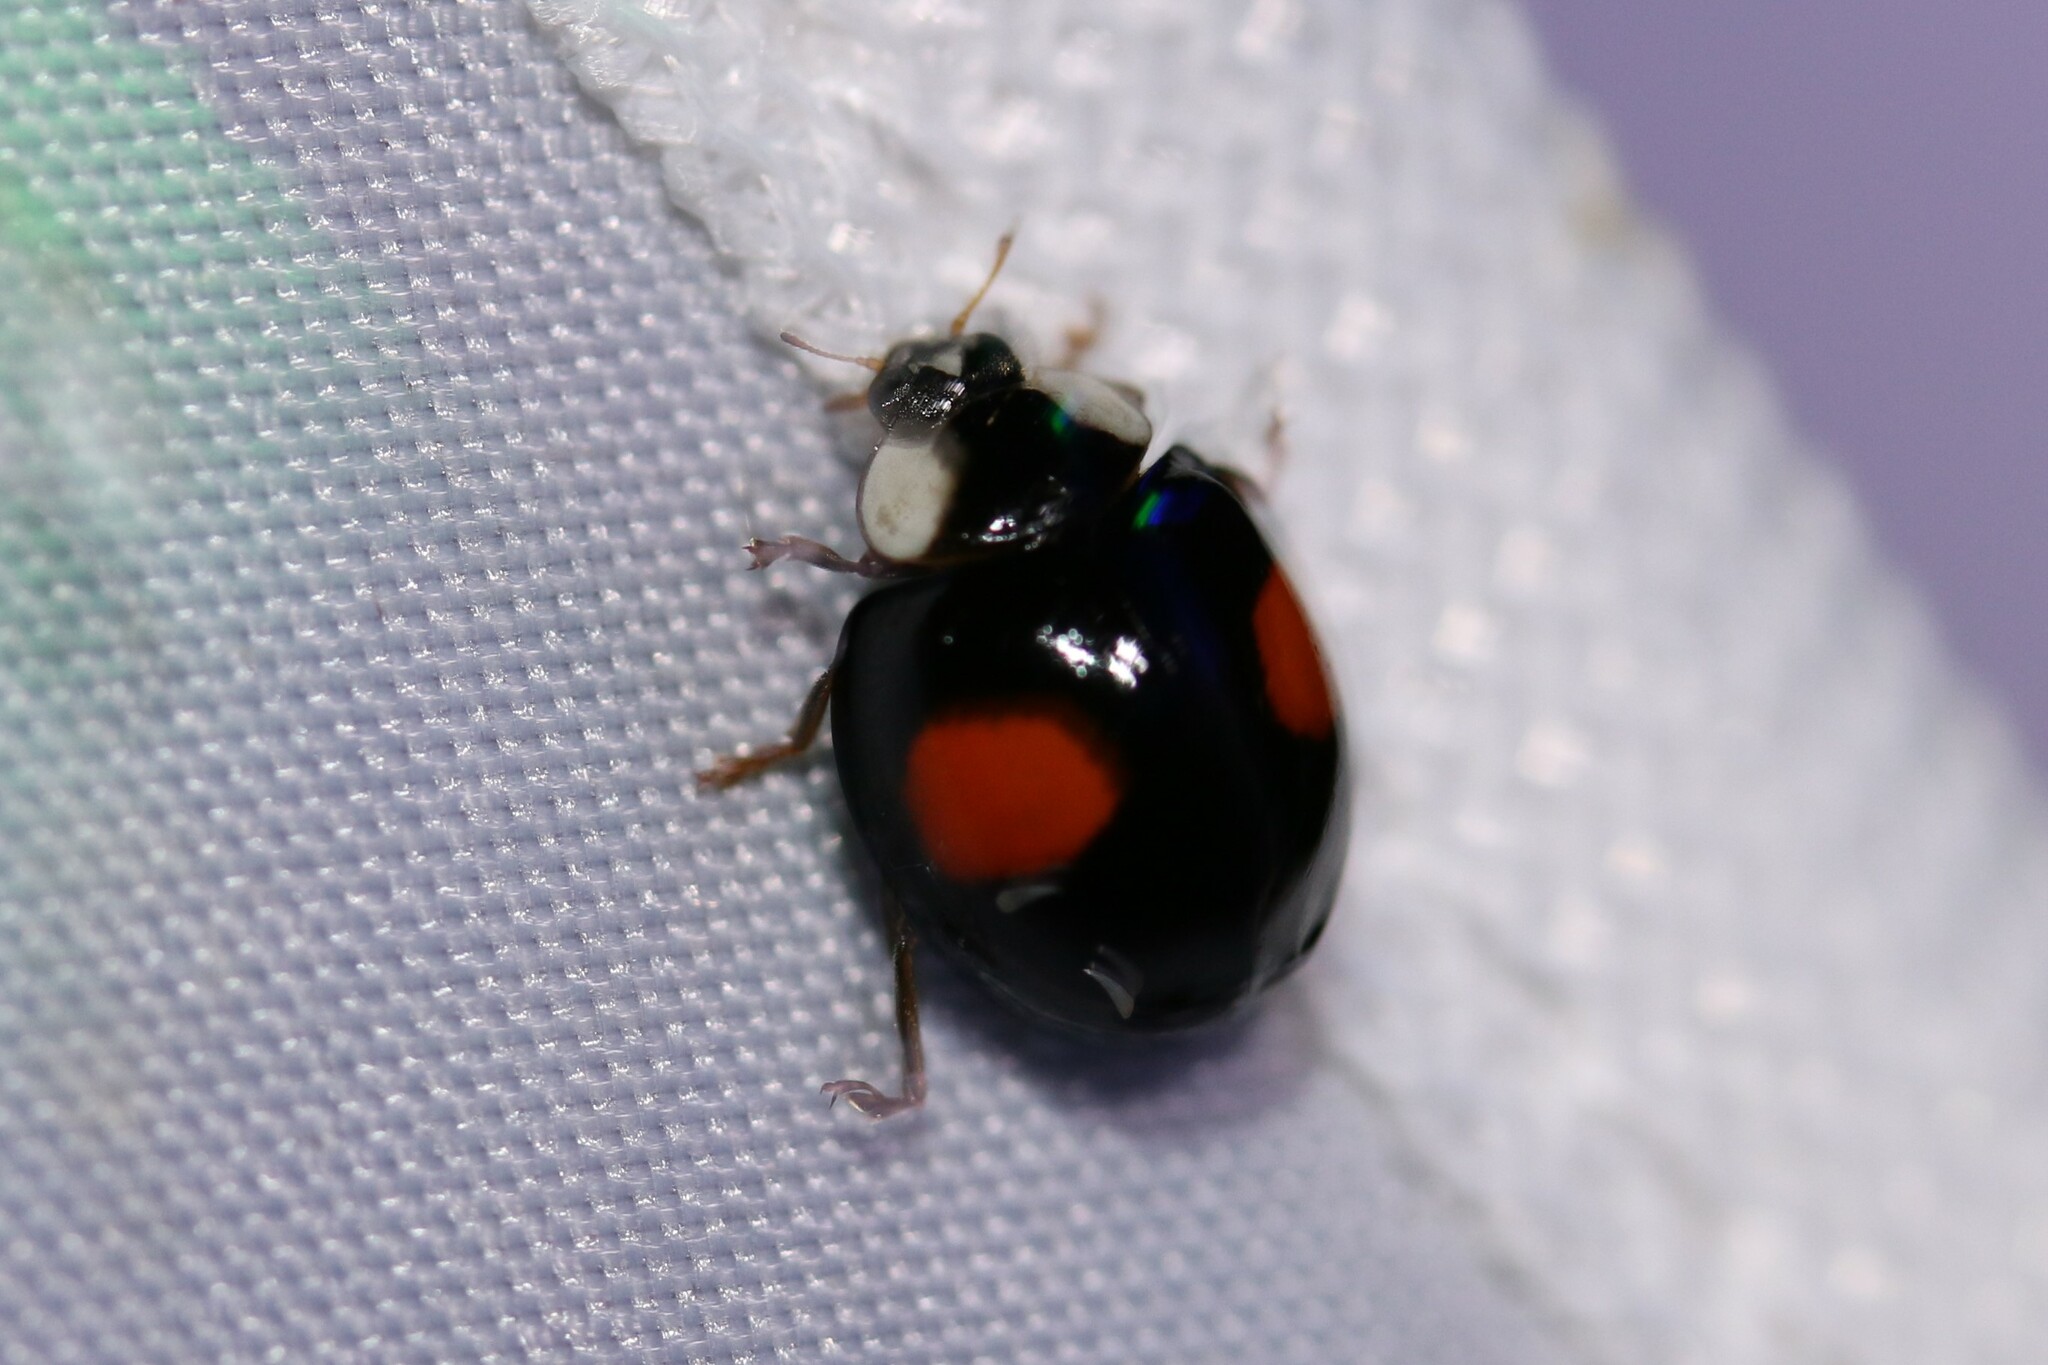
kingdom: Animalia
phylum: Arthropoda
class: Insecta
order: Coleoptera
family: Coccinellidae
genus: Harmonia
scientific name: Harmonia axyridis
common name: Harlequin ladybird
